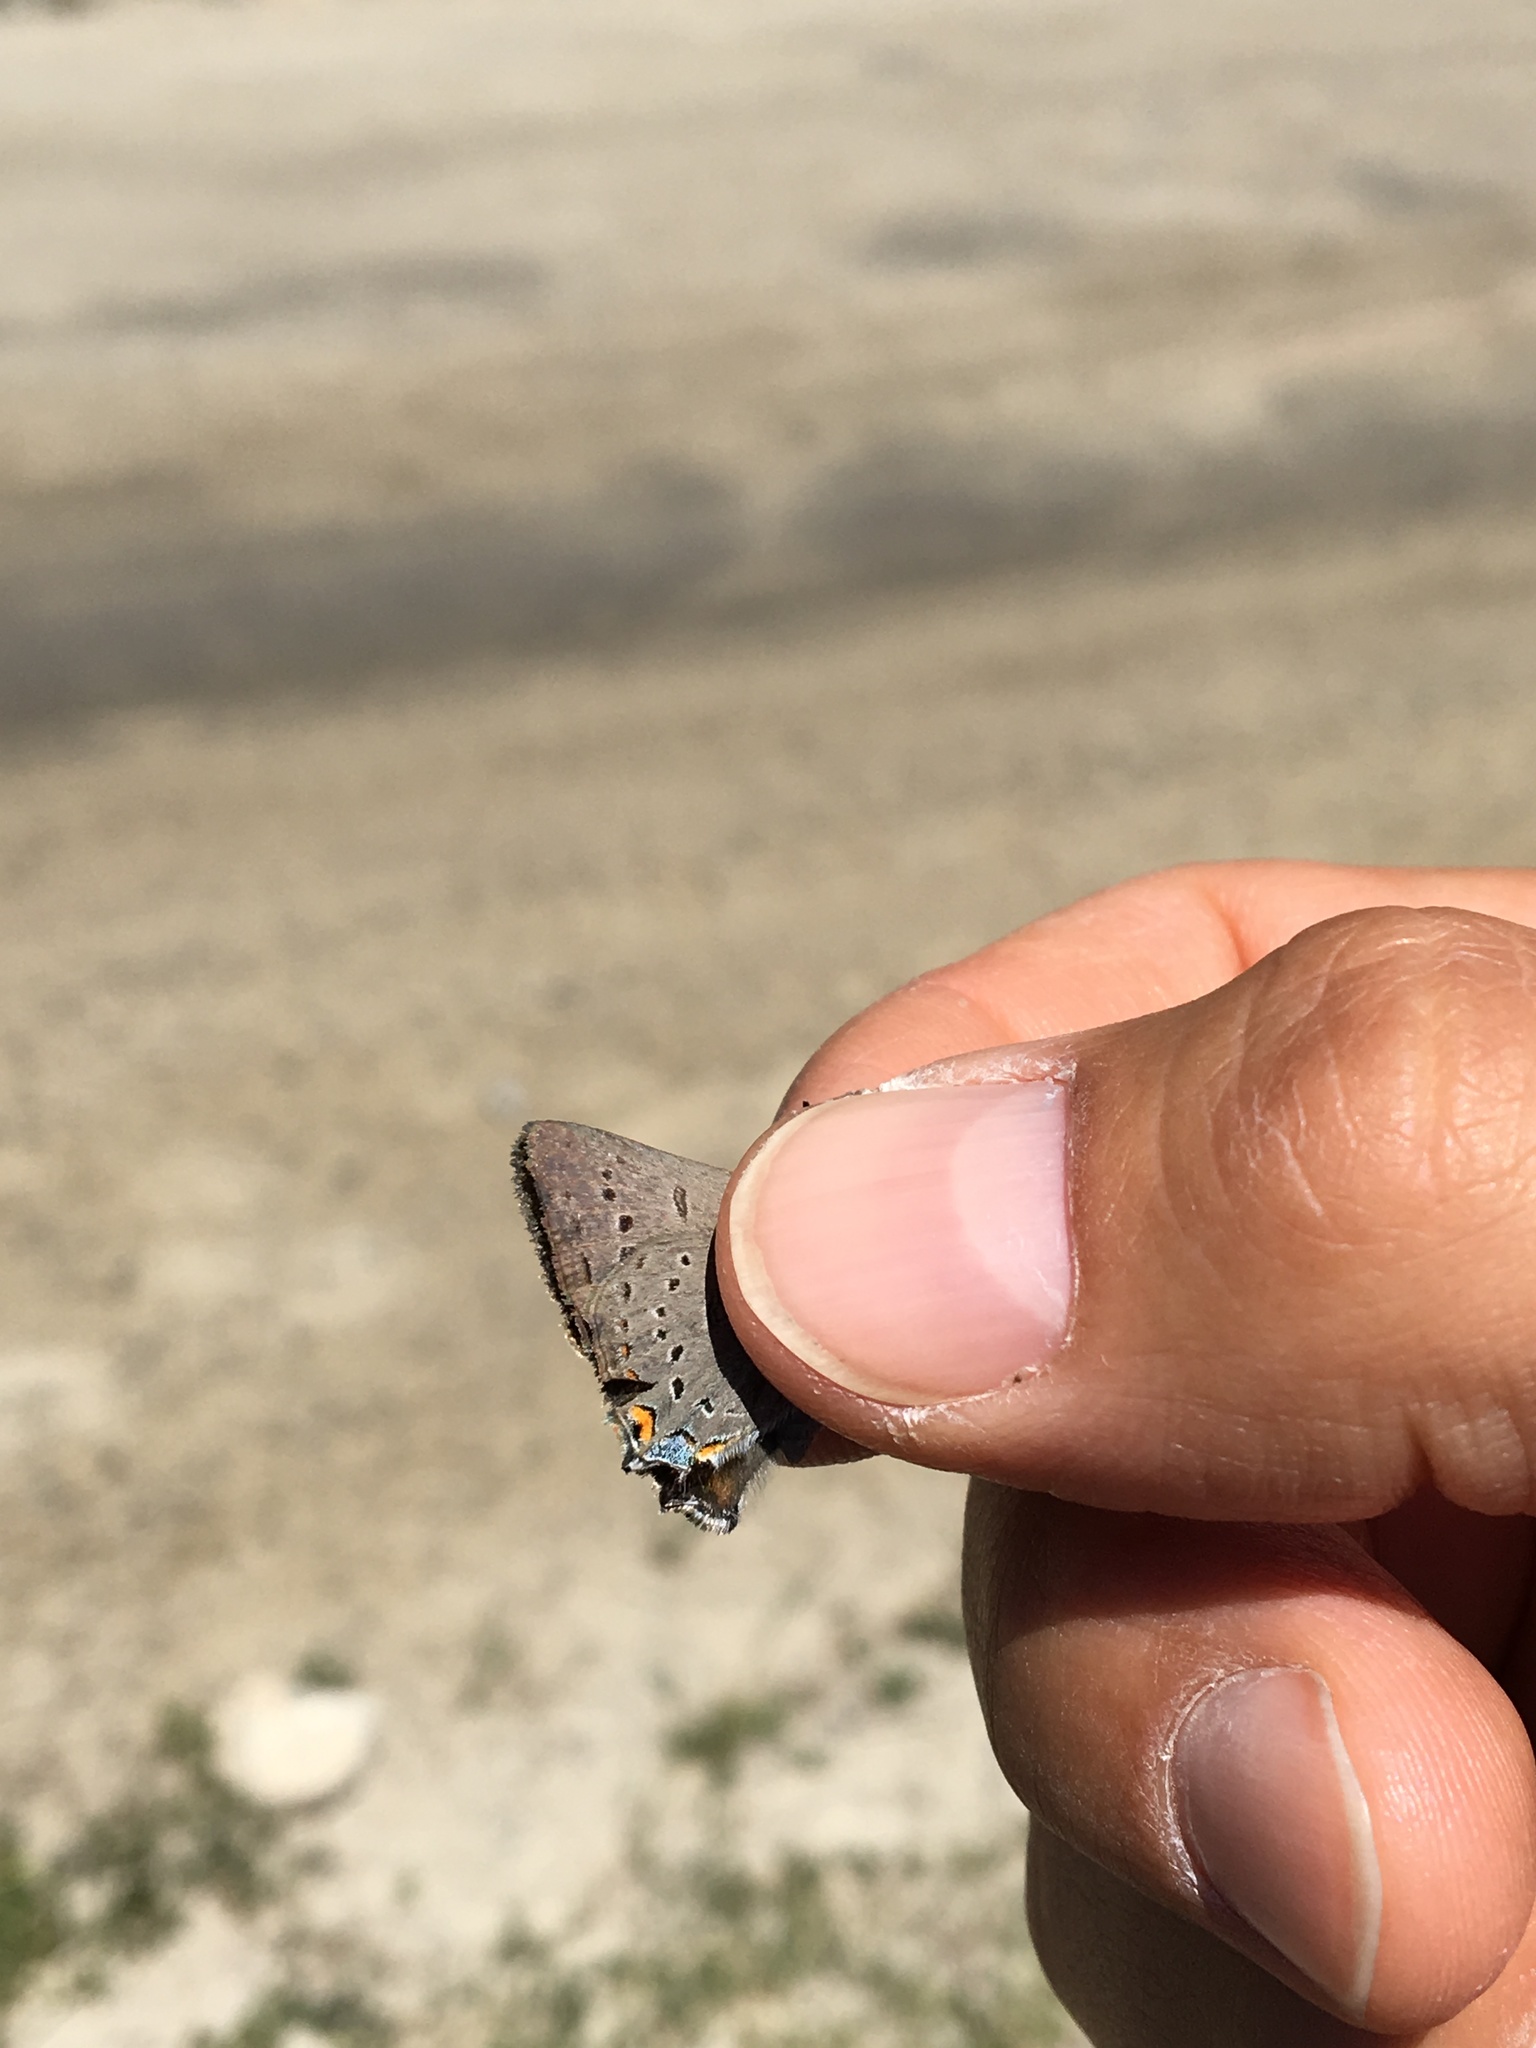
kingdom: Animalia
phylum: Arthropoda
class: Insecta
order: Lepidoptera
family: Lycaenidae
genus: Strymon
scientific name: Strymon acadica
